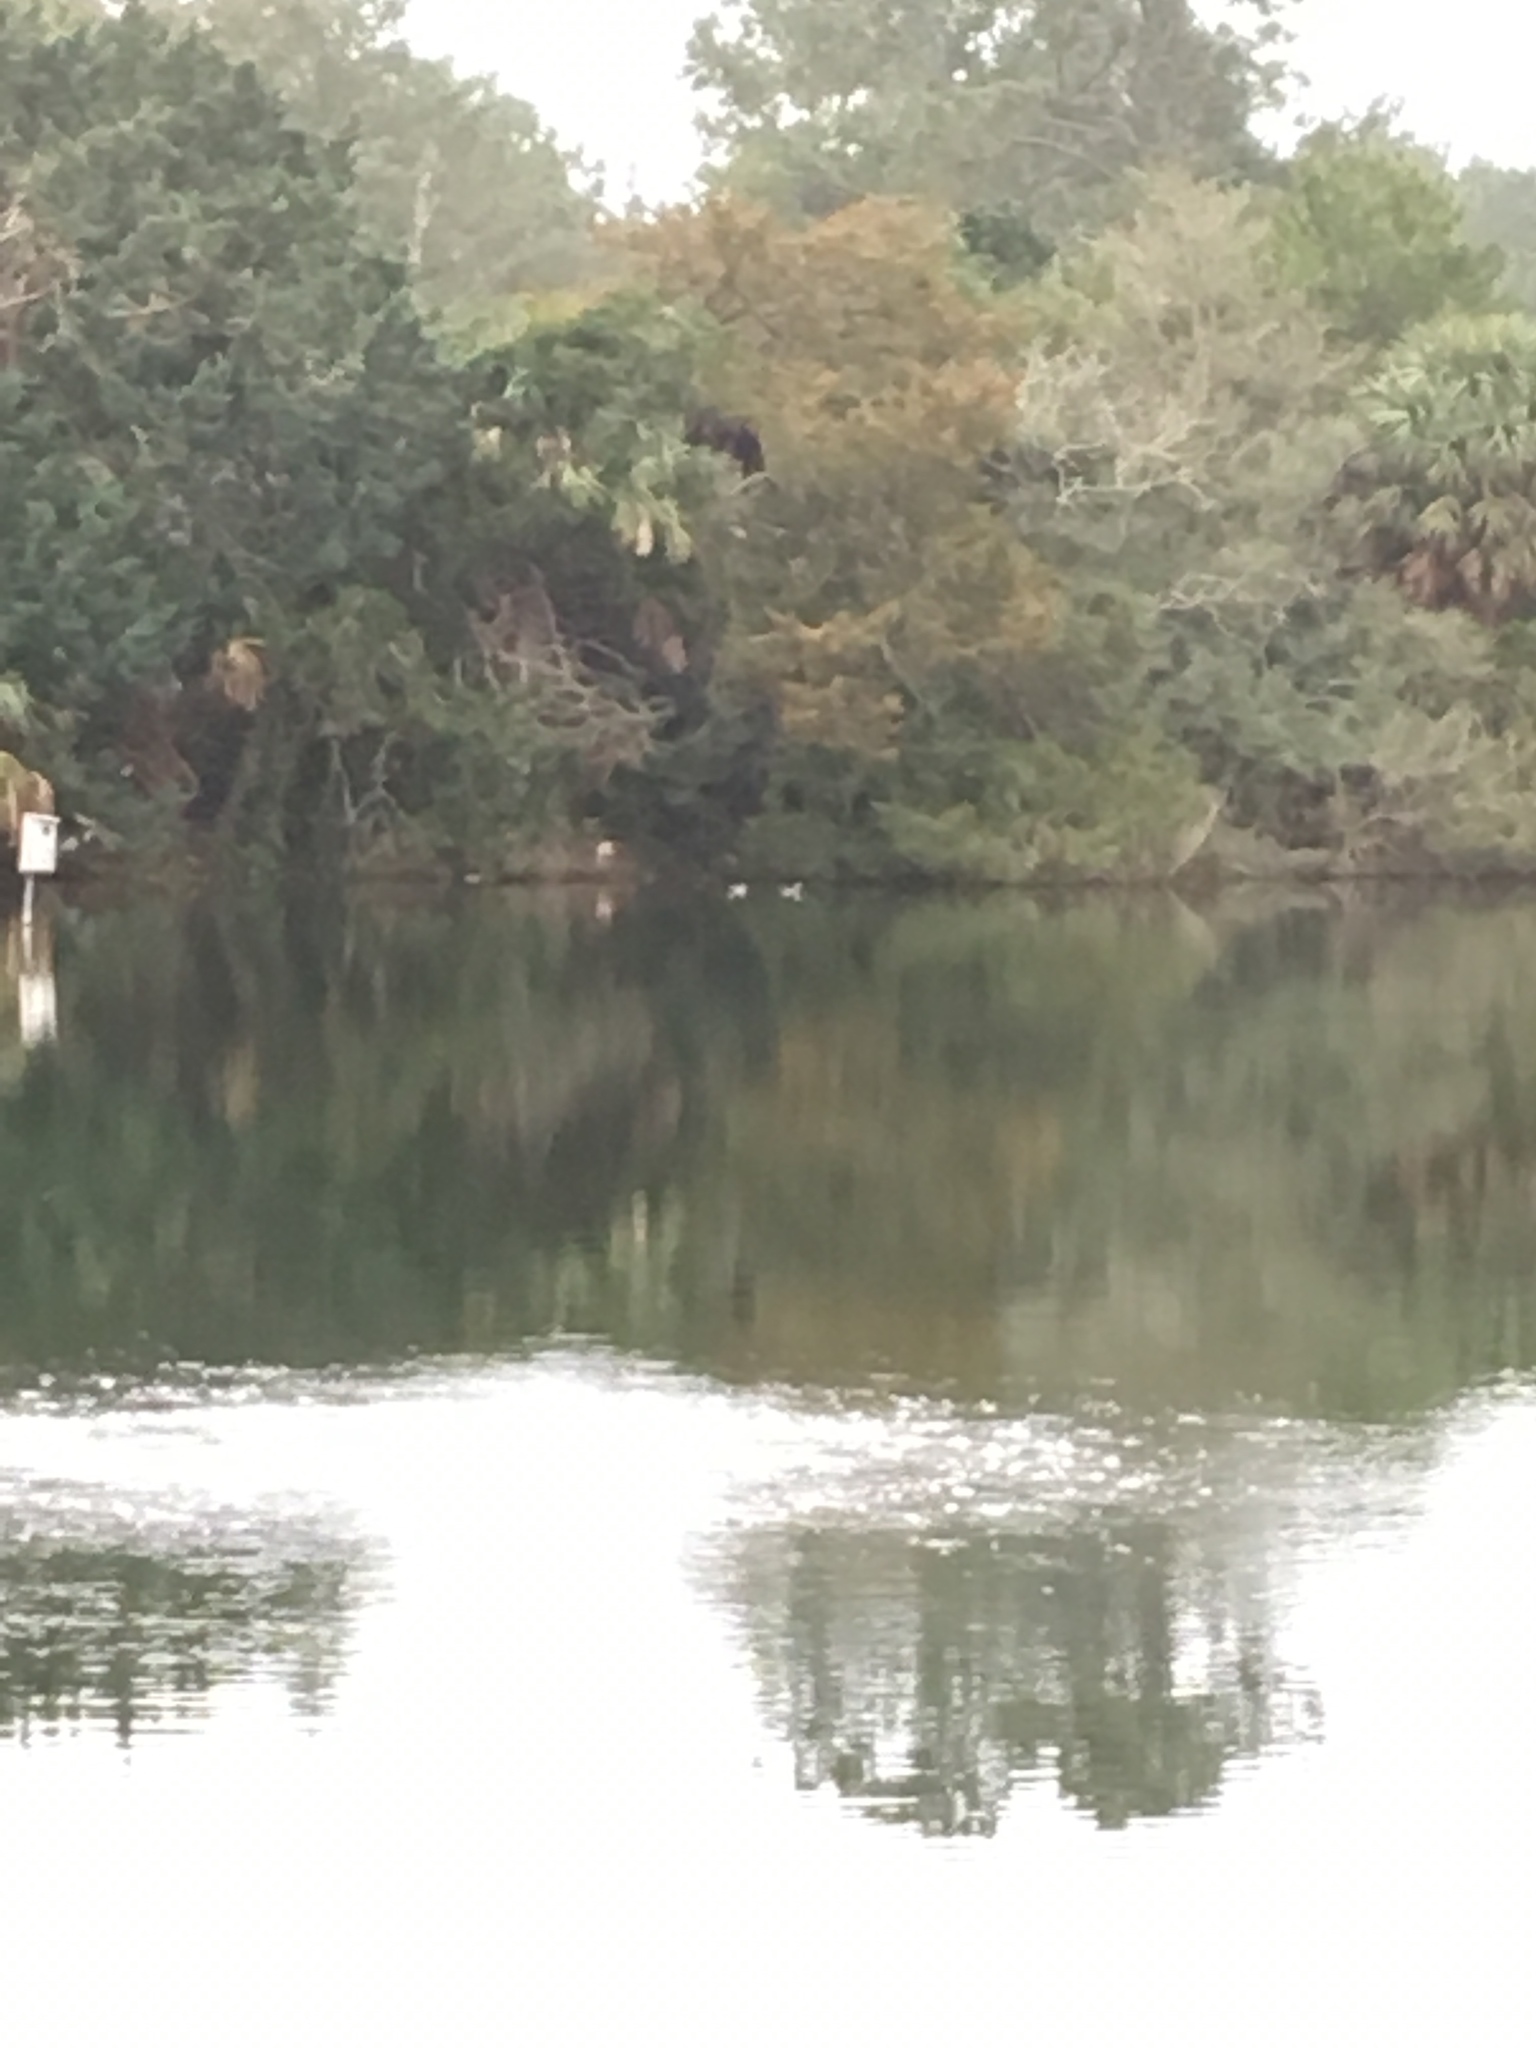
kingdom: Animalia
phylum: Chordata
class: Aves
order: Anseriformes
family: Anatidae
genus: Aix
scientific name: Aix sponsa
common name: Wood duck
